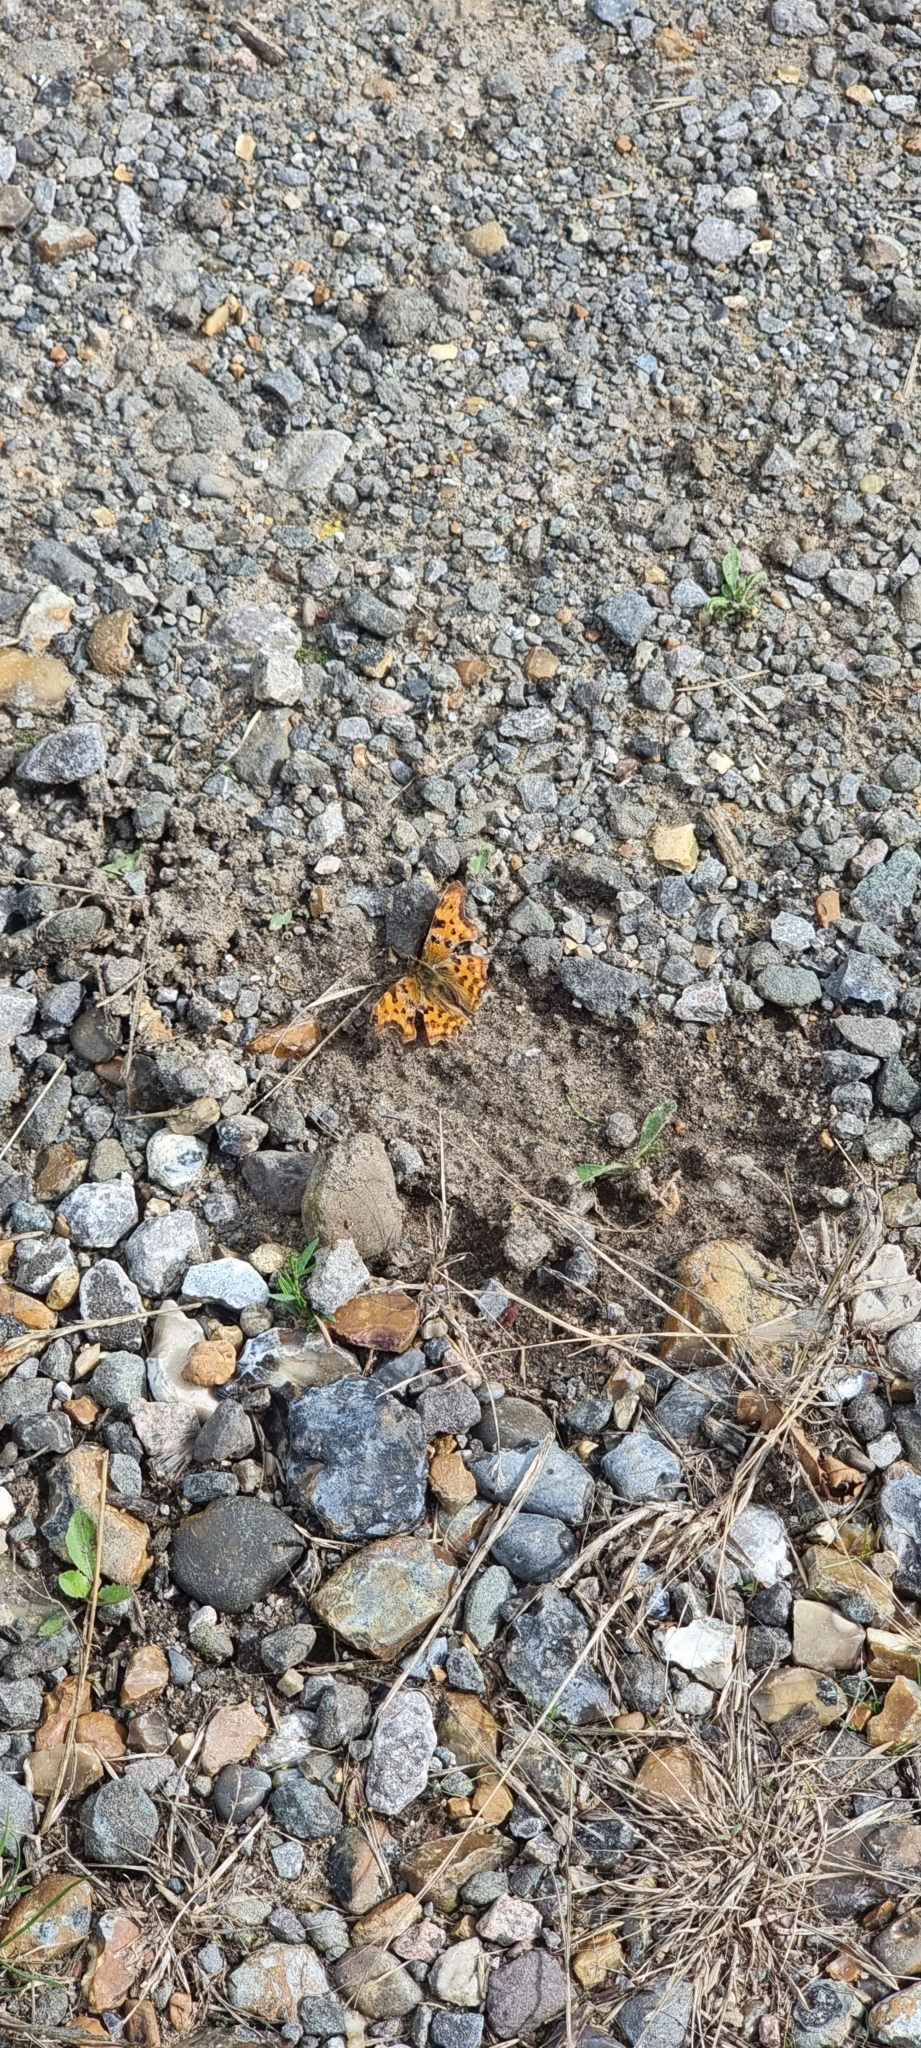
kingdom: Animalia
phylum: Arthropoda
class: Insecta
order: Lepidoptera
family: Nymphalidae
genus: Polygonia
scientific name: Polygonia c-album
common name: Comma
